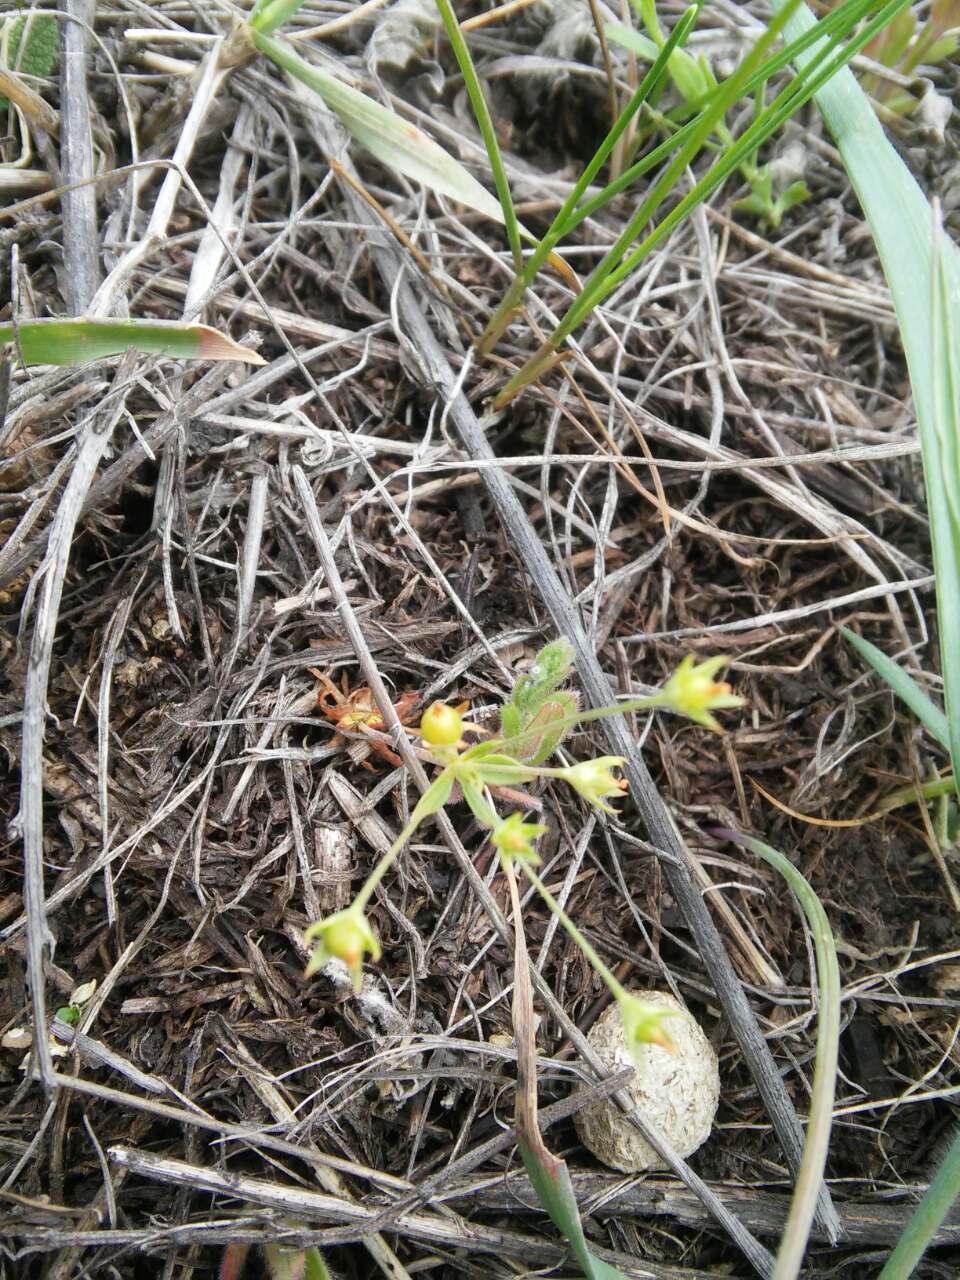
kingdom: Plantae
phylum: Tracheophyta
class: Magnoliopsida
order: Ericales
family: Primulaceae
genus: Androsace
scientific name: Androsace elongata
